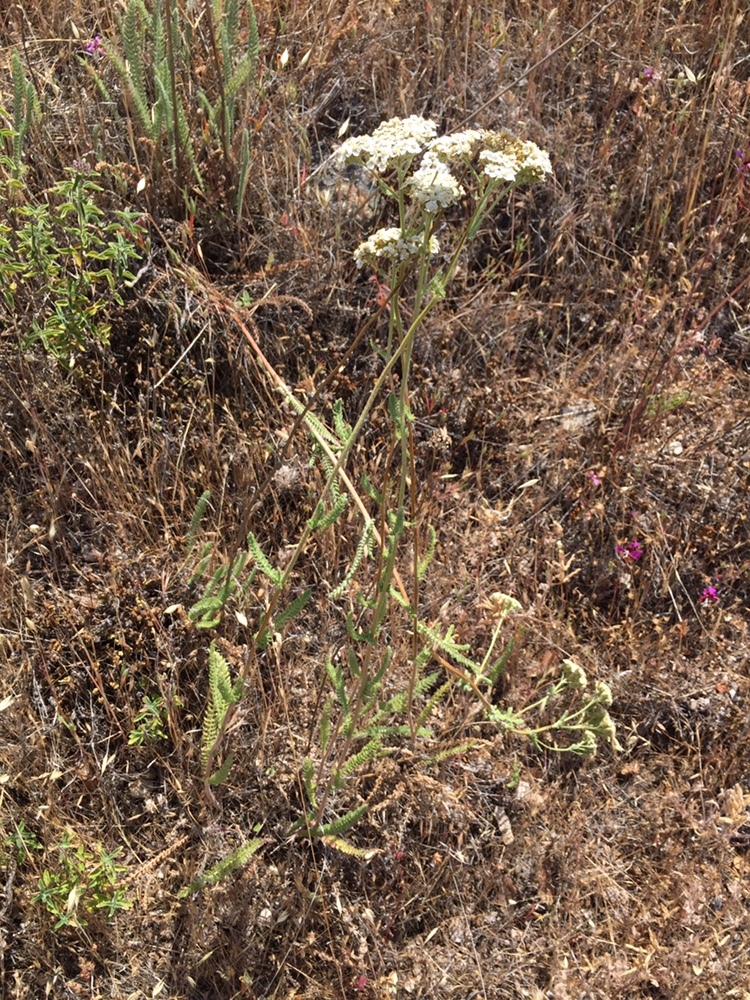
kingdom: Plantae
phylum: Tracheophyta
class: Magnoliopsida
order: Asterales
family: Asteraceae
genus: Achillea
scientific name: Achillea millefolium
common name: Yarrow
